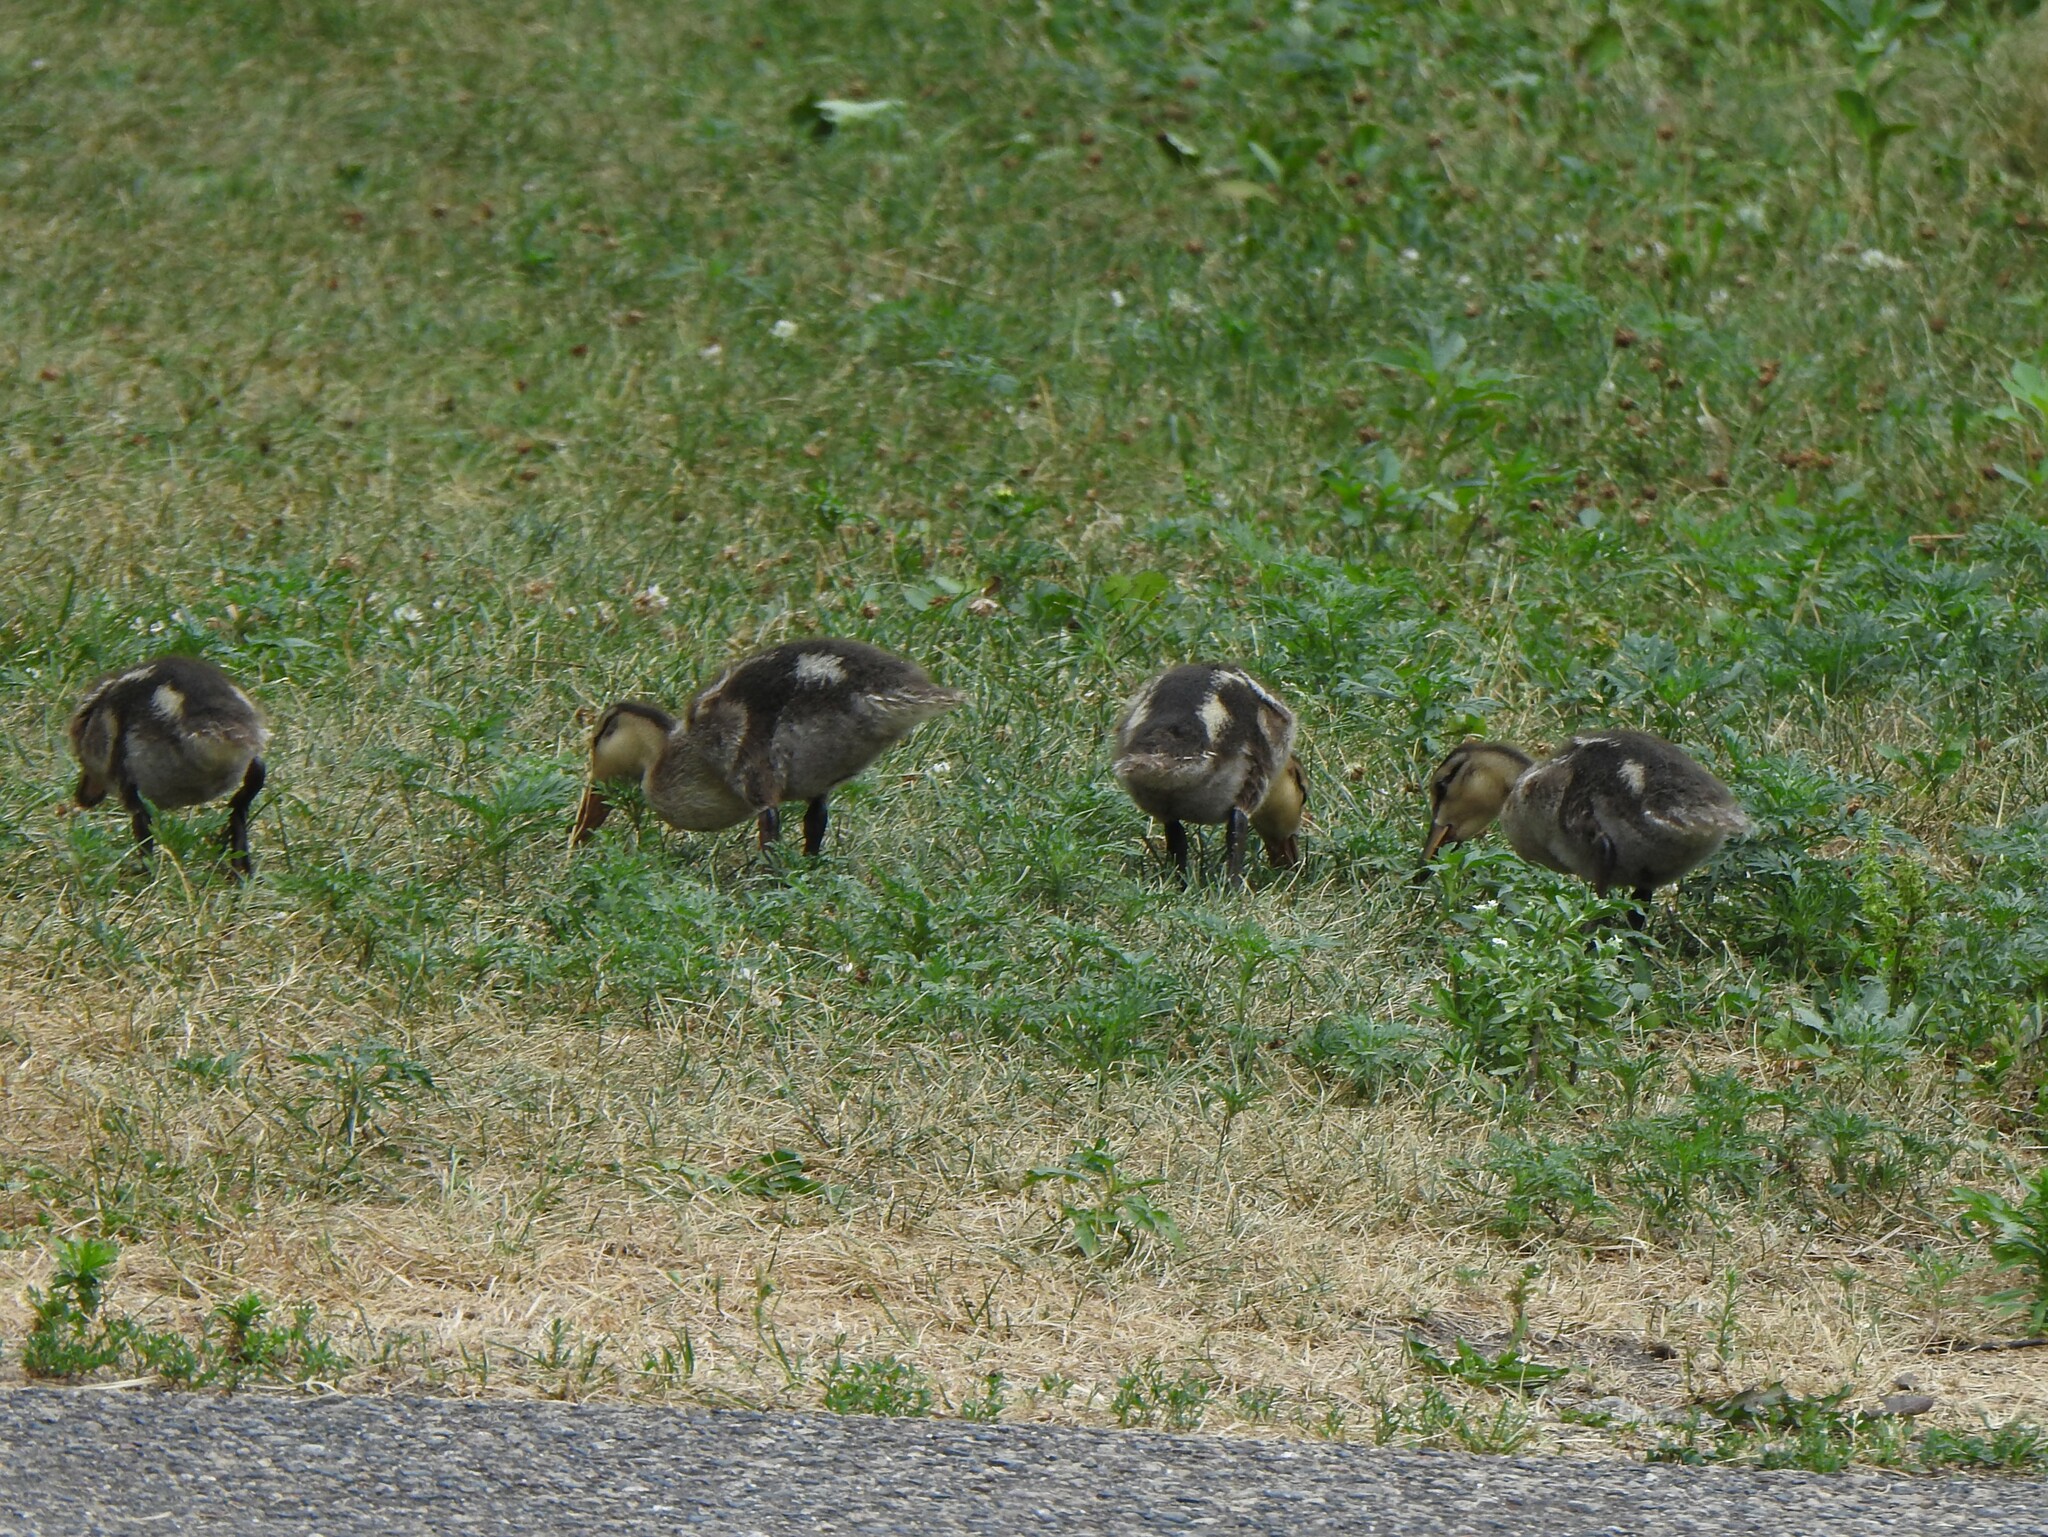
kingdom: Animalia
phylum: Chordata
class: Aves
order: Anseriformes
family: Anatidae
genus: Anas
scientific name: Anas platyrhynchos
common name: Mallard
